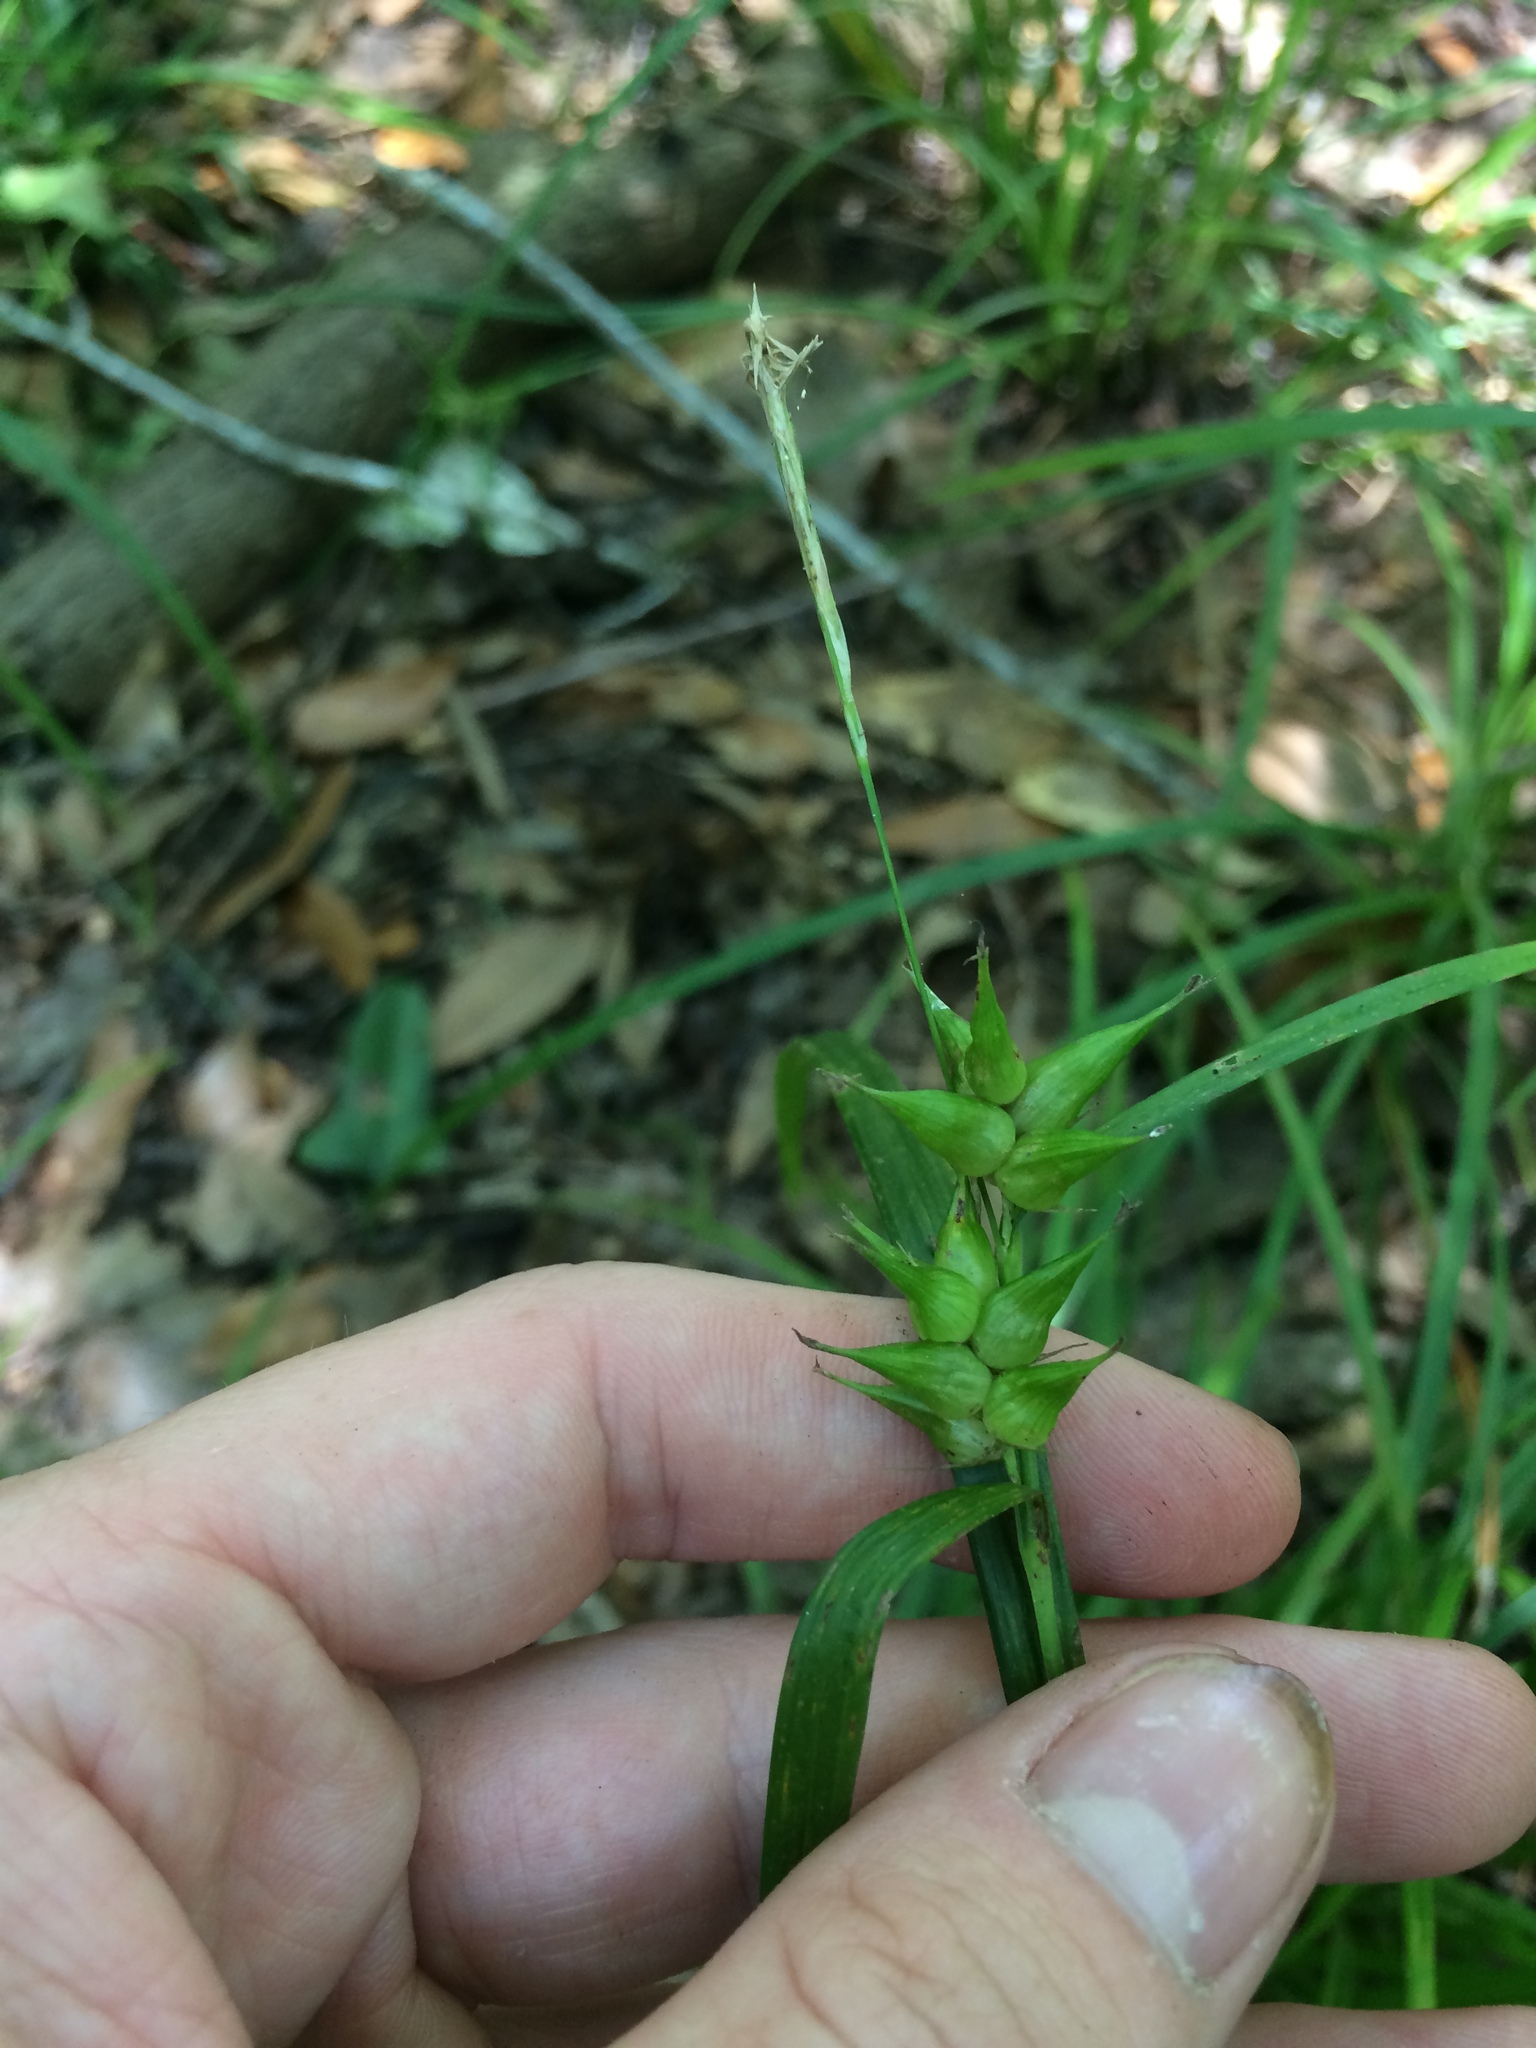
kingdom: Plantae
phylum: Tracheophyta
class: Liliopsida
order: Poales
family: Cyperaceae
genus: Carex
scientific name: Carex intumescens
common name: Greater bladder sedge
